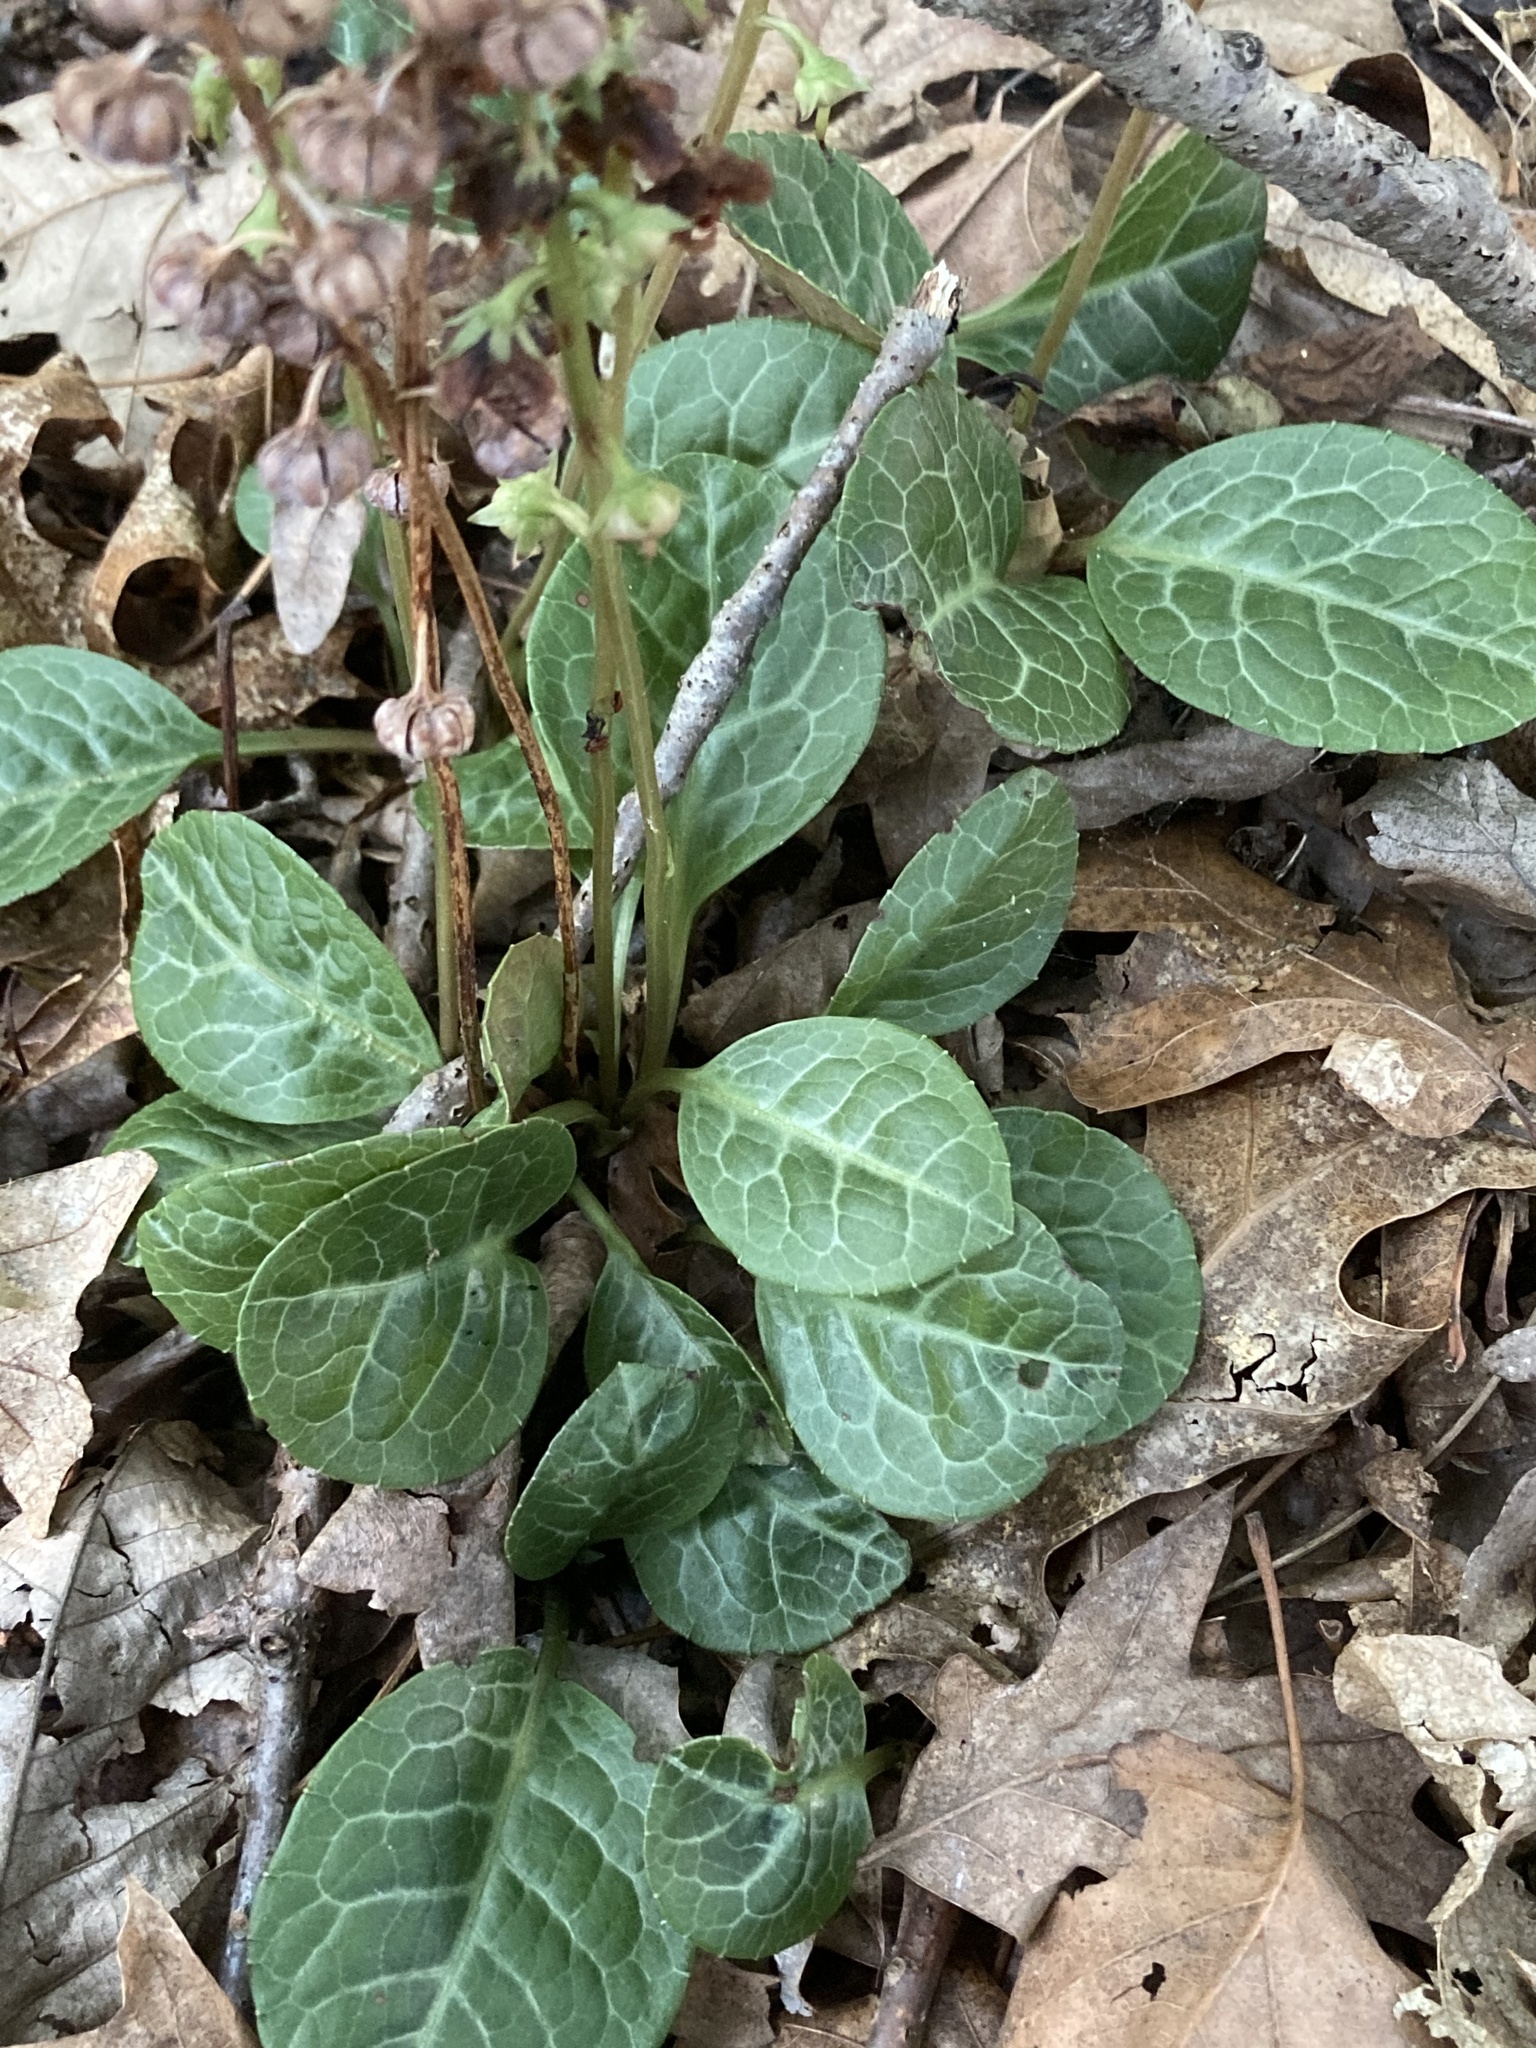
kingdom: Plantae
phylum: Tracheophyta
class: Magnoliopsida
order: Ericales
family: Ericaceae
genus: Pyrola
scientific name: Pyrola americana
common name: American wintergreen
